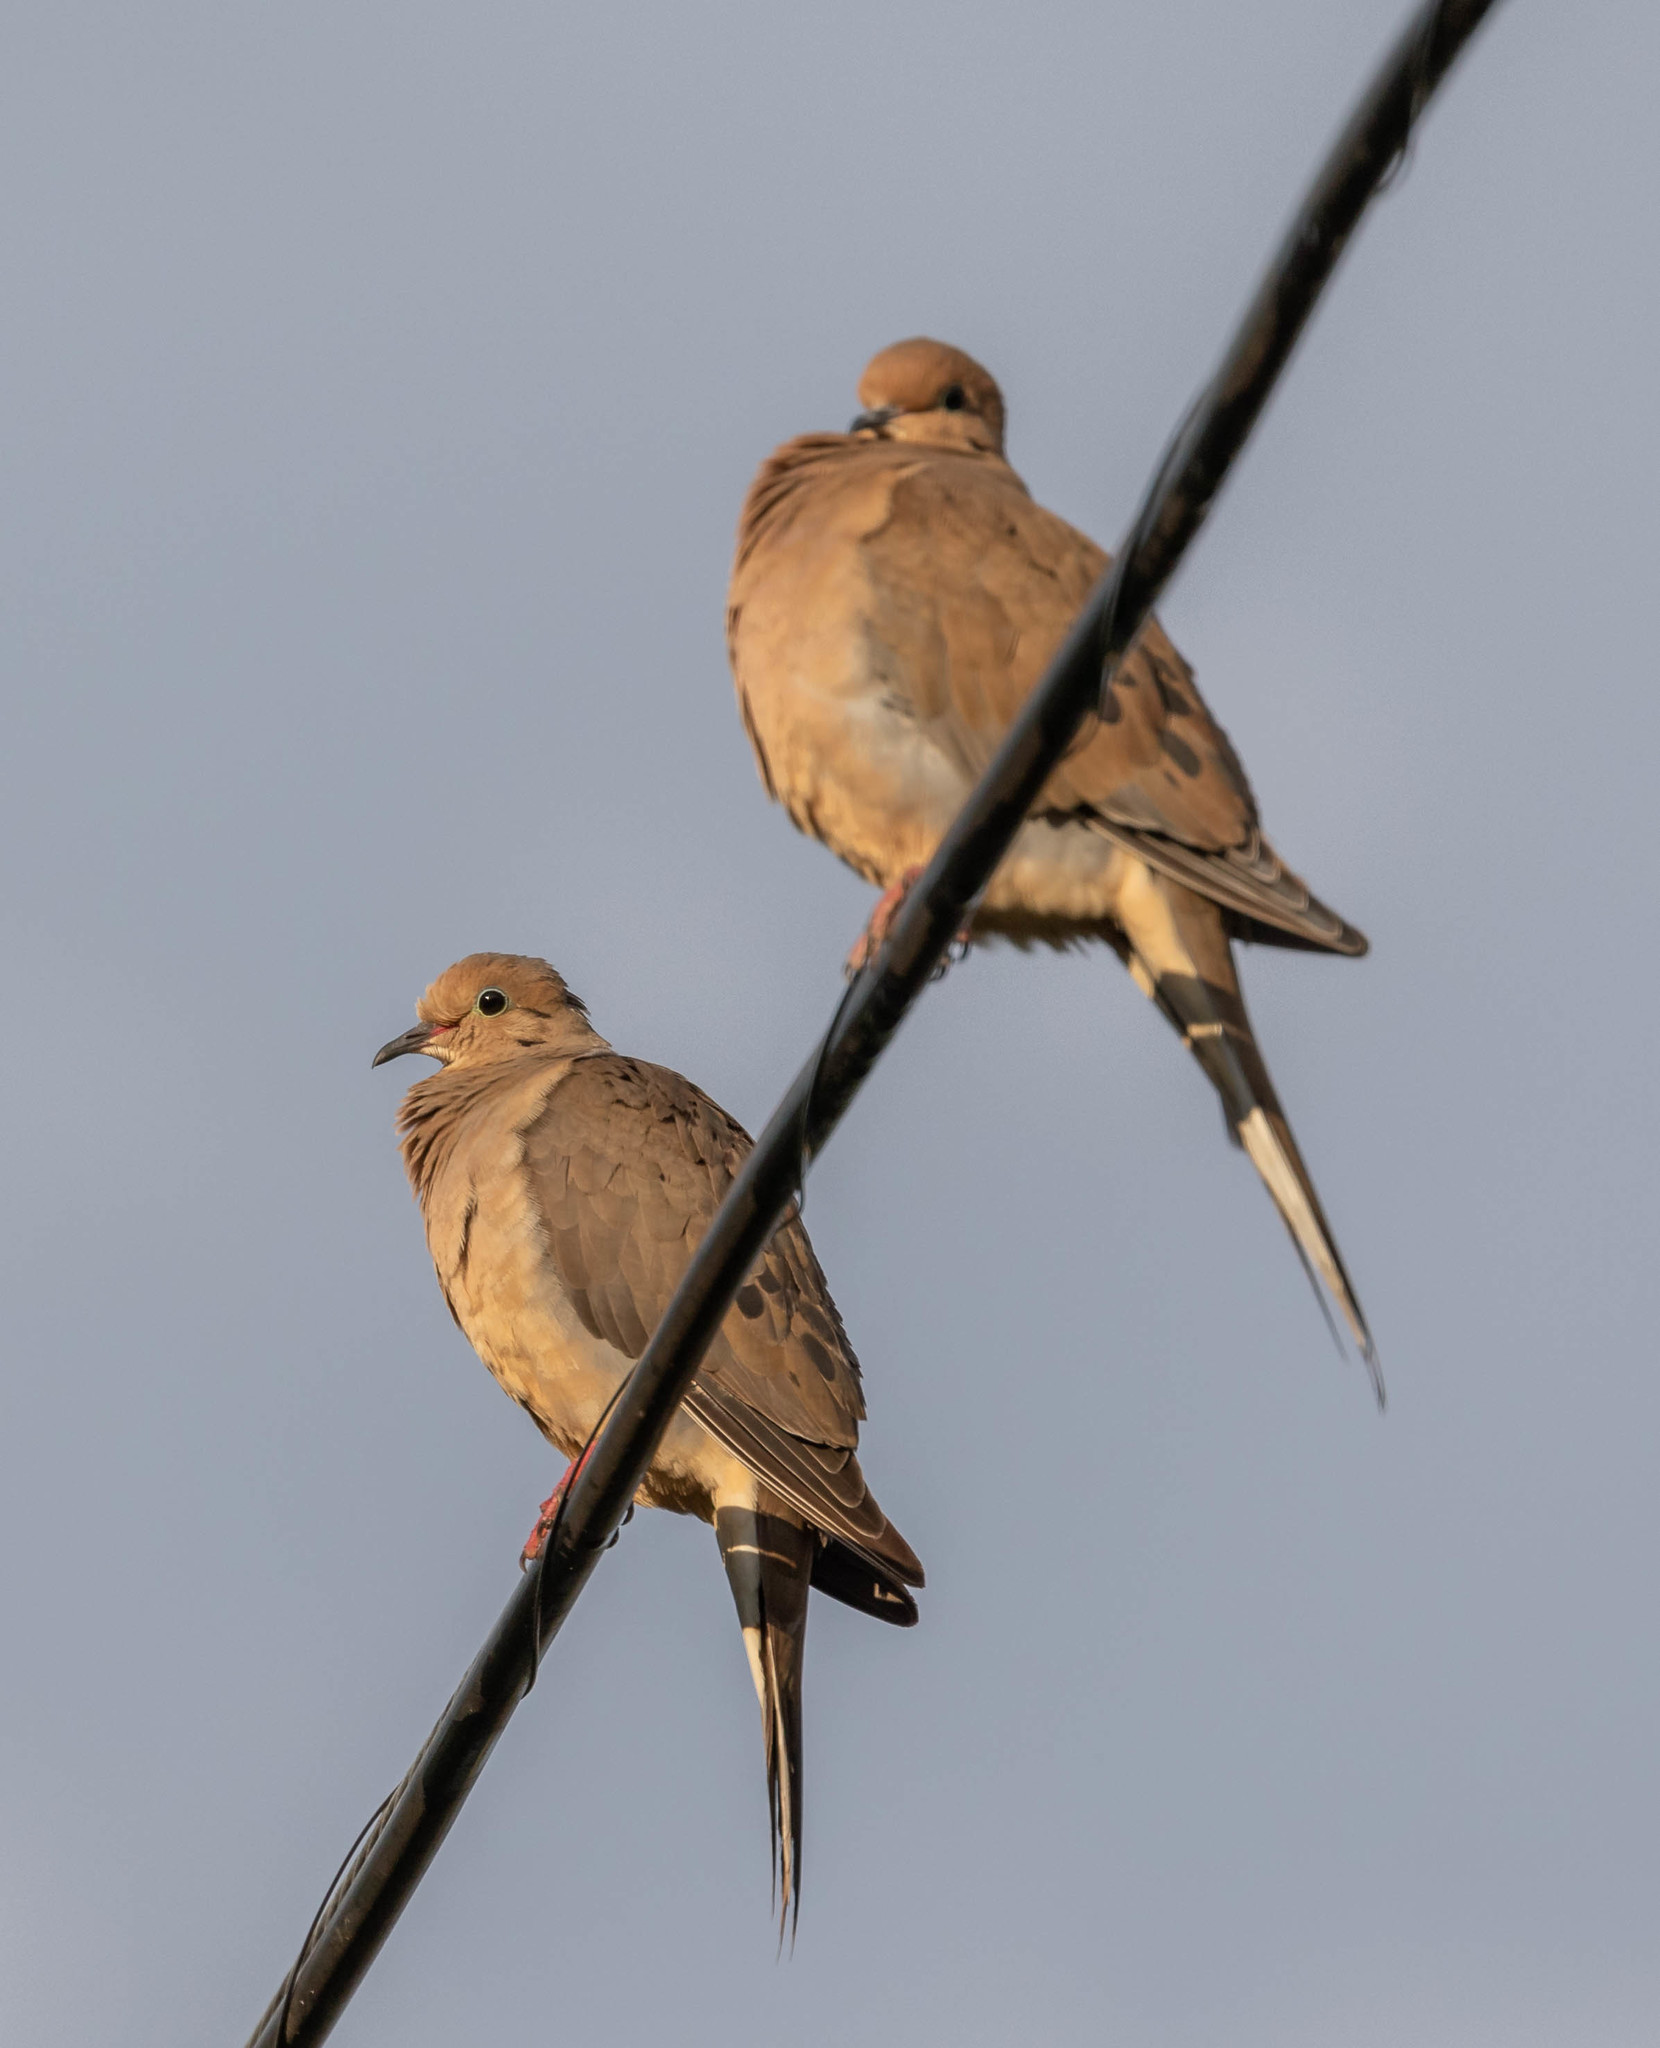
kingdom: Animalia
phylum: Chordata
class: Aves
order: Columbiformes
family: Columbidae
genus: Zenaida
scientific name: Zenaida macroura
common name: Mourning dove
